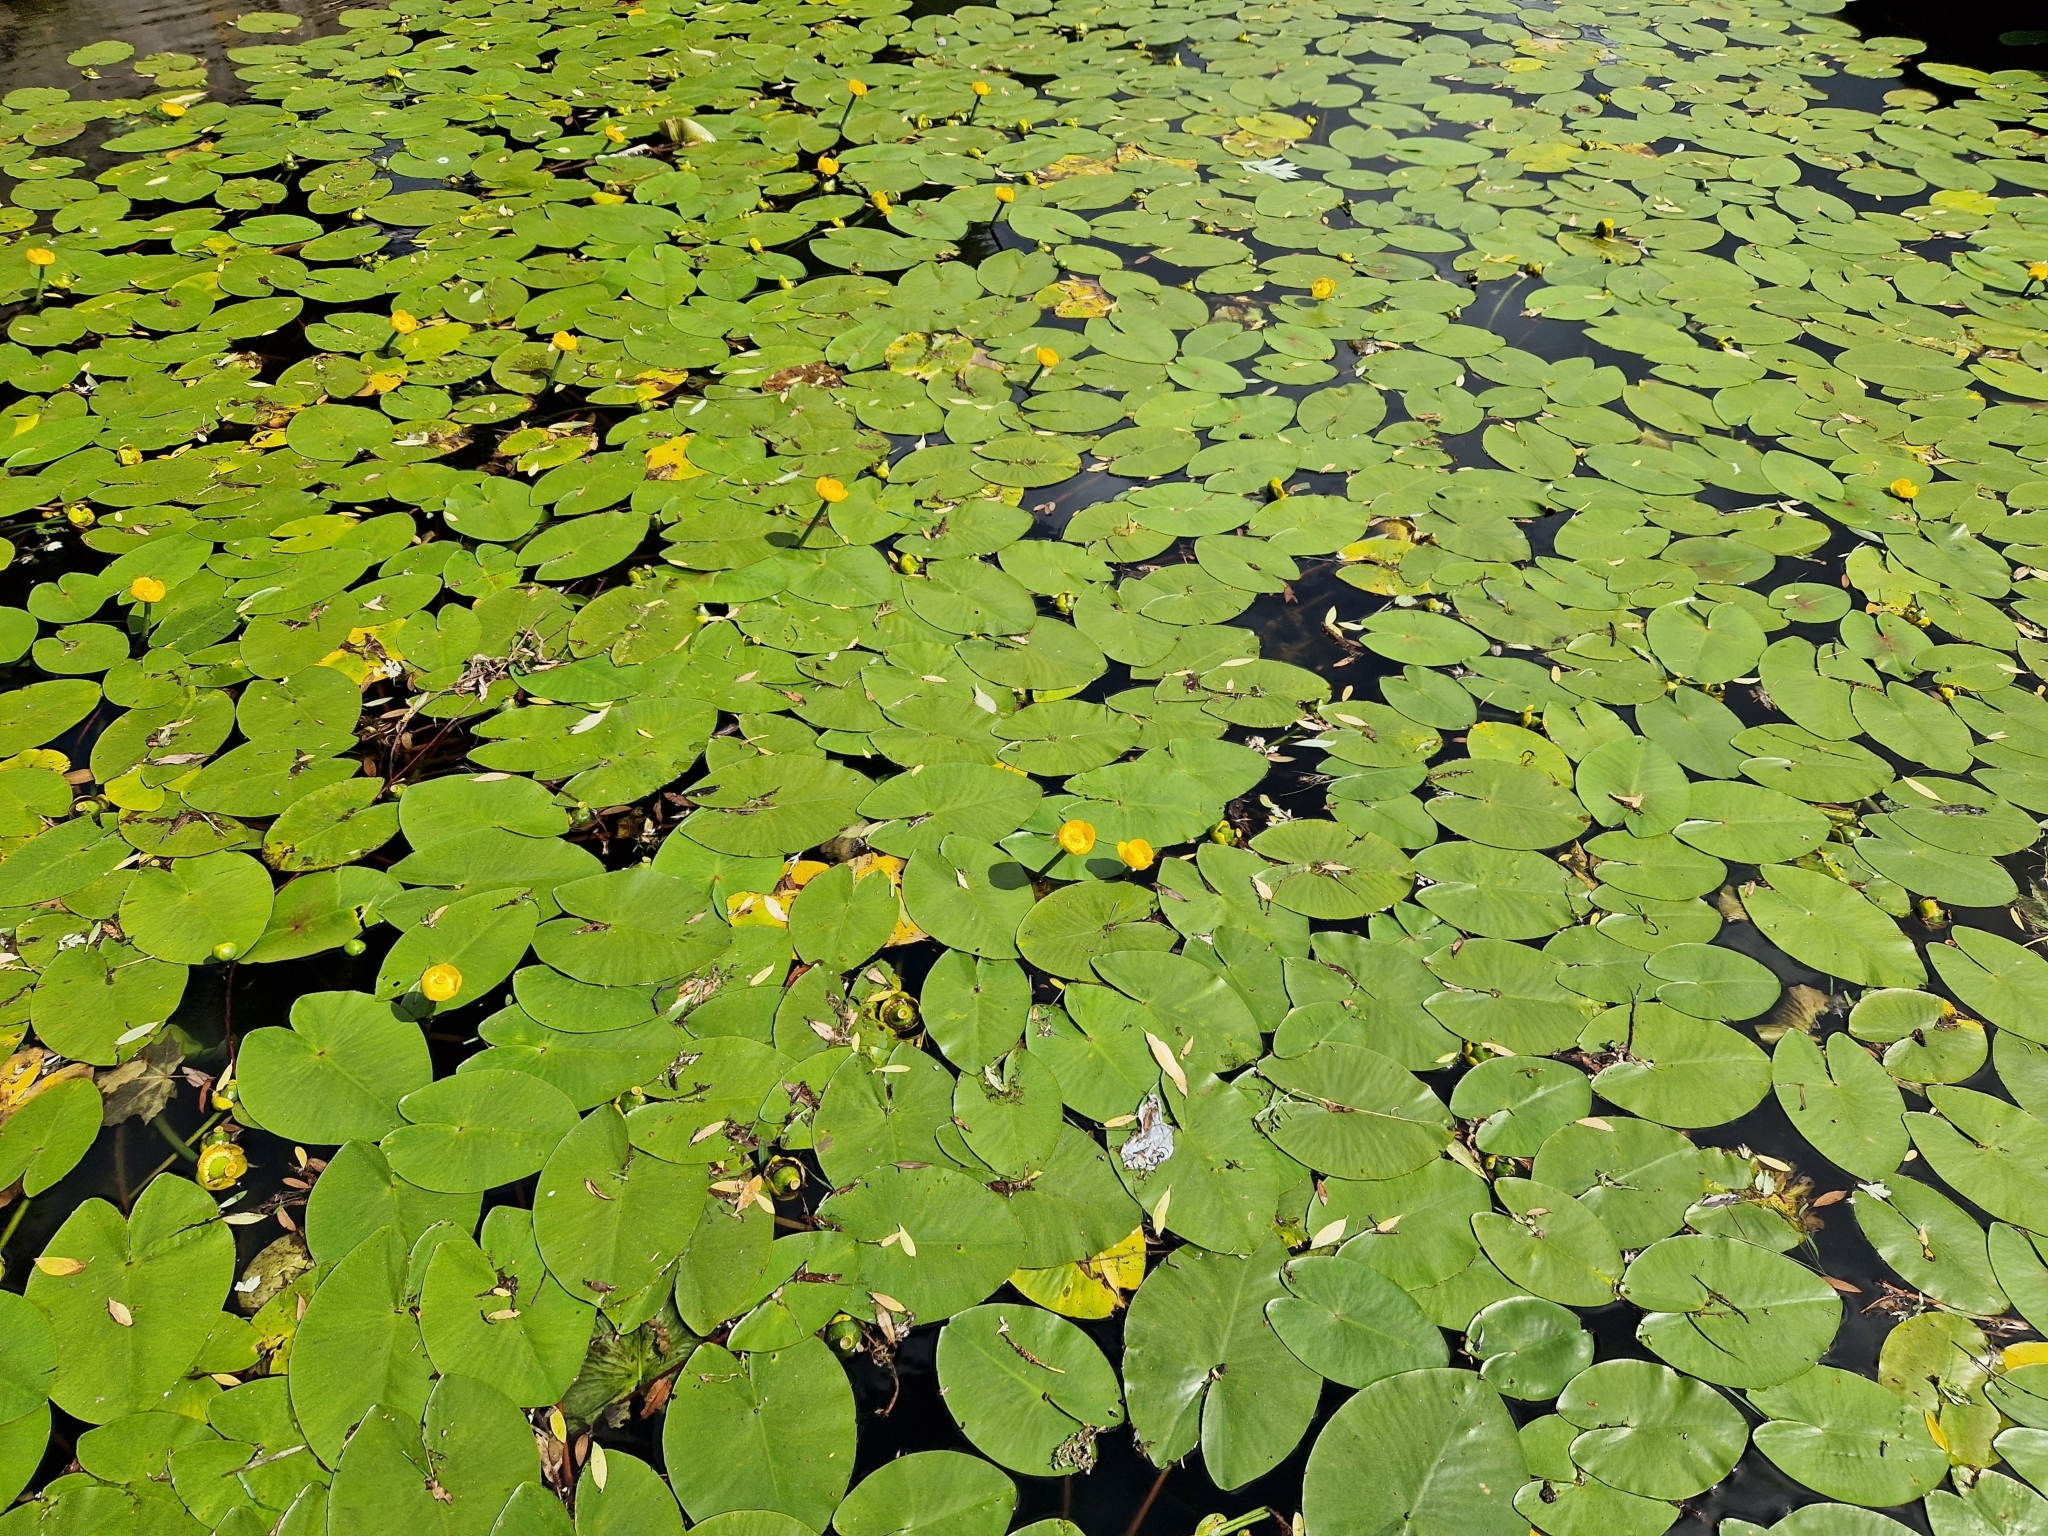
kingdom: Plantae
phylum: Tracheophyta
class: Magnoliopsida
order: Nymphaeales
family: Nymphaeaceae
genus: Nuphar
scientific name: Nuphar lutea
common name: Yellow water-lily
